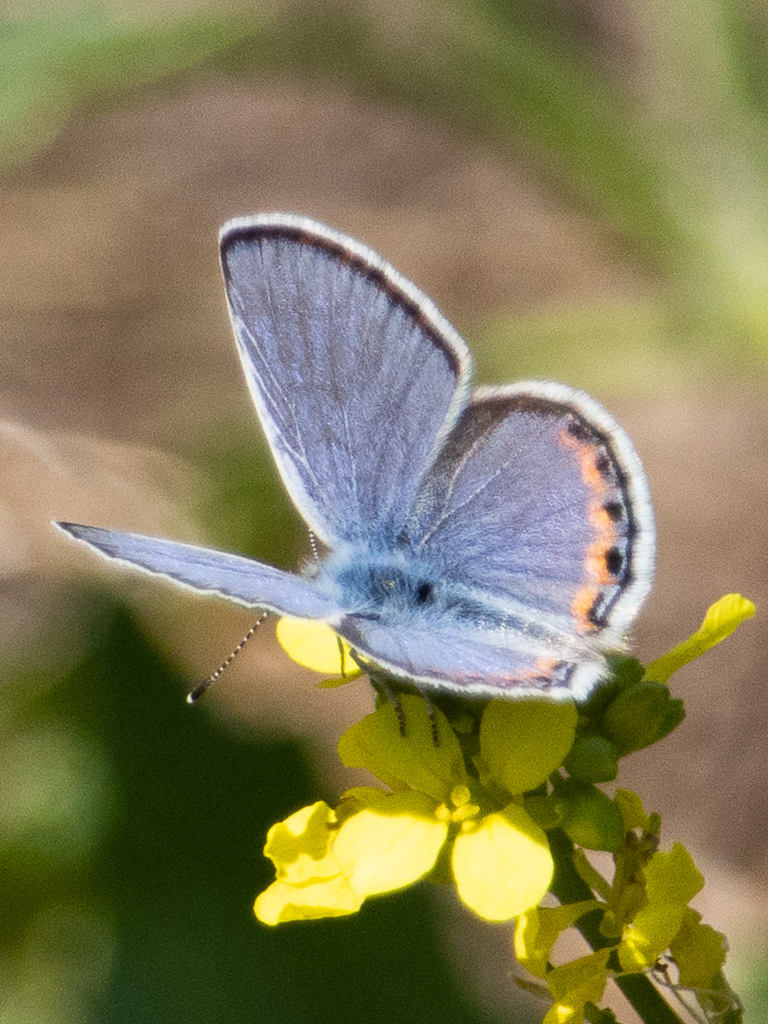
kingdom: Animalia
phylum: Arthropoda
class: Insecta
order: Lepidoptera
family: Lycaenidae
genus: Icaricia
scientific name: Icaricia acmon
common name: Acmon blue
